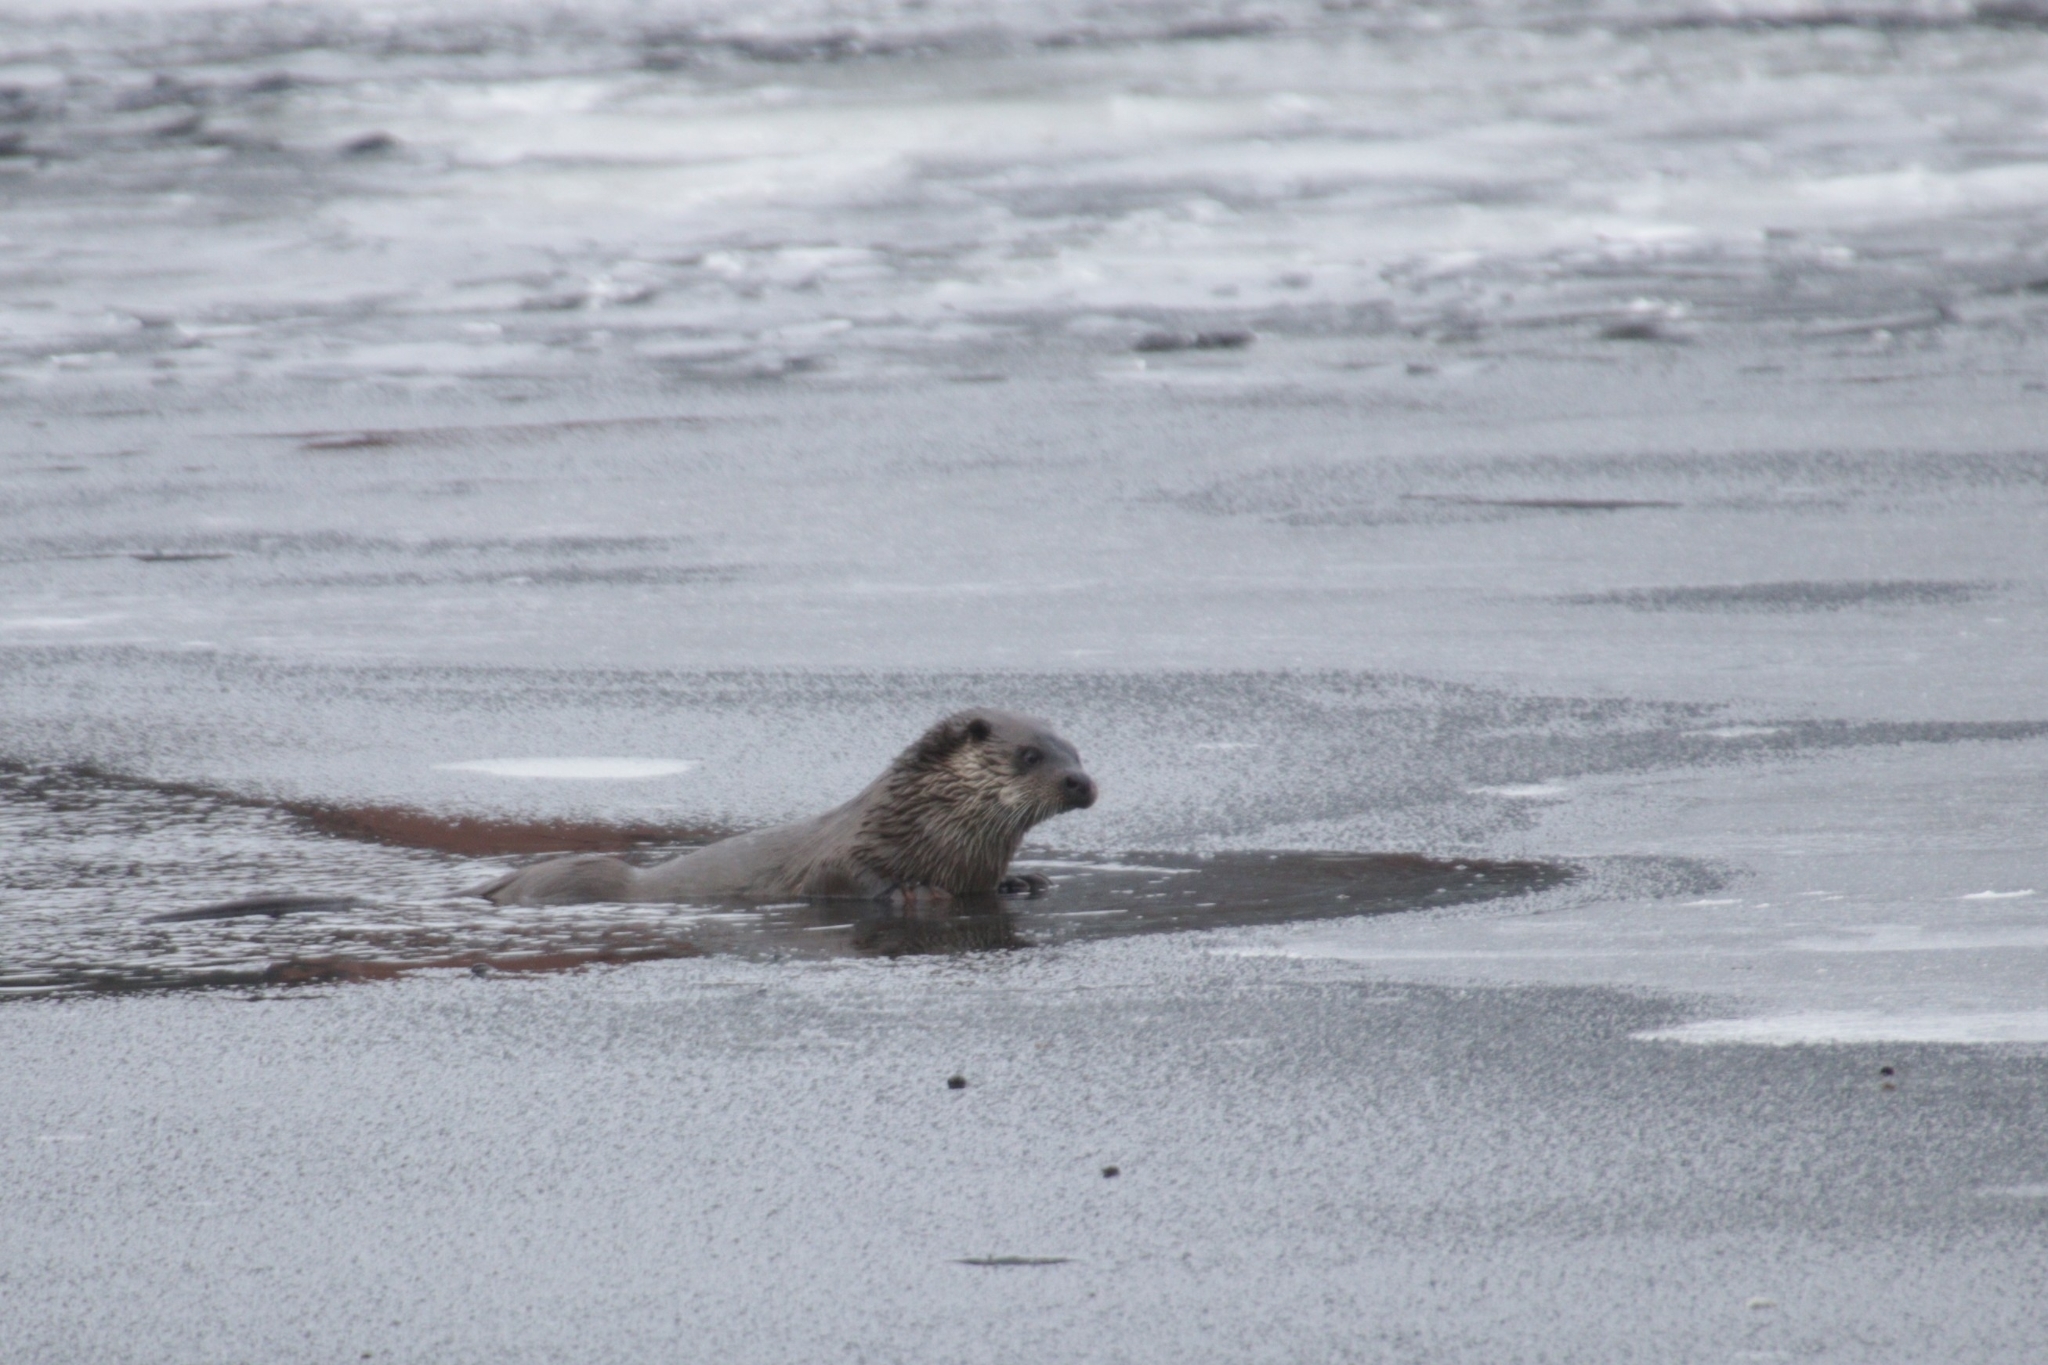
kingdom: Animalia
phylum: Chordata
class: Mammalia
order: Carnivora
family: Mustelidae
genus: Lutra
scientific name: Lutra lutra
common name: European otter
